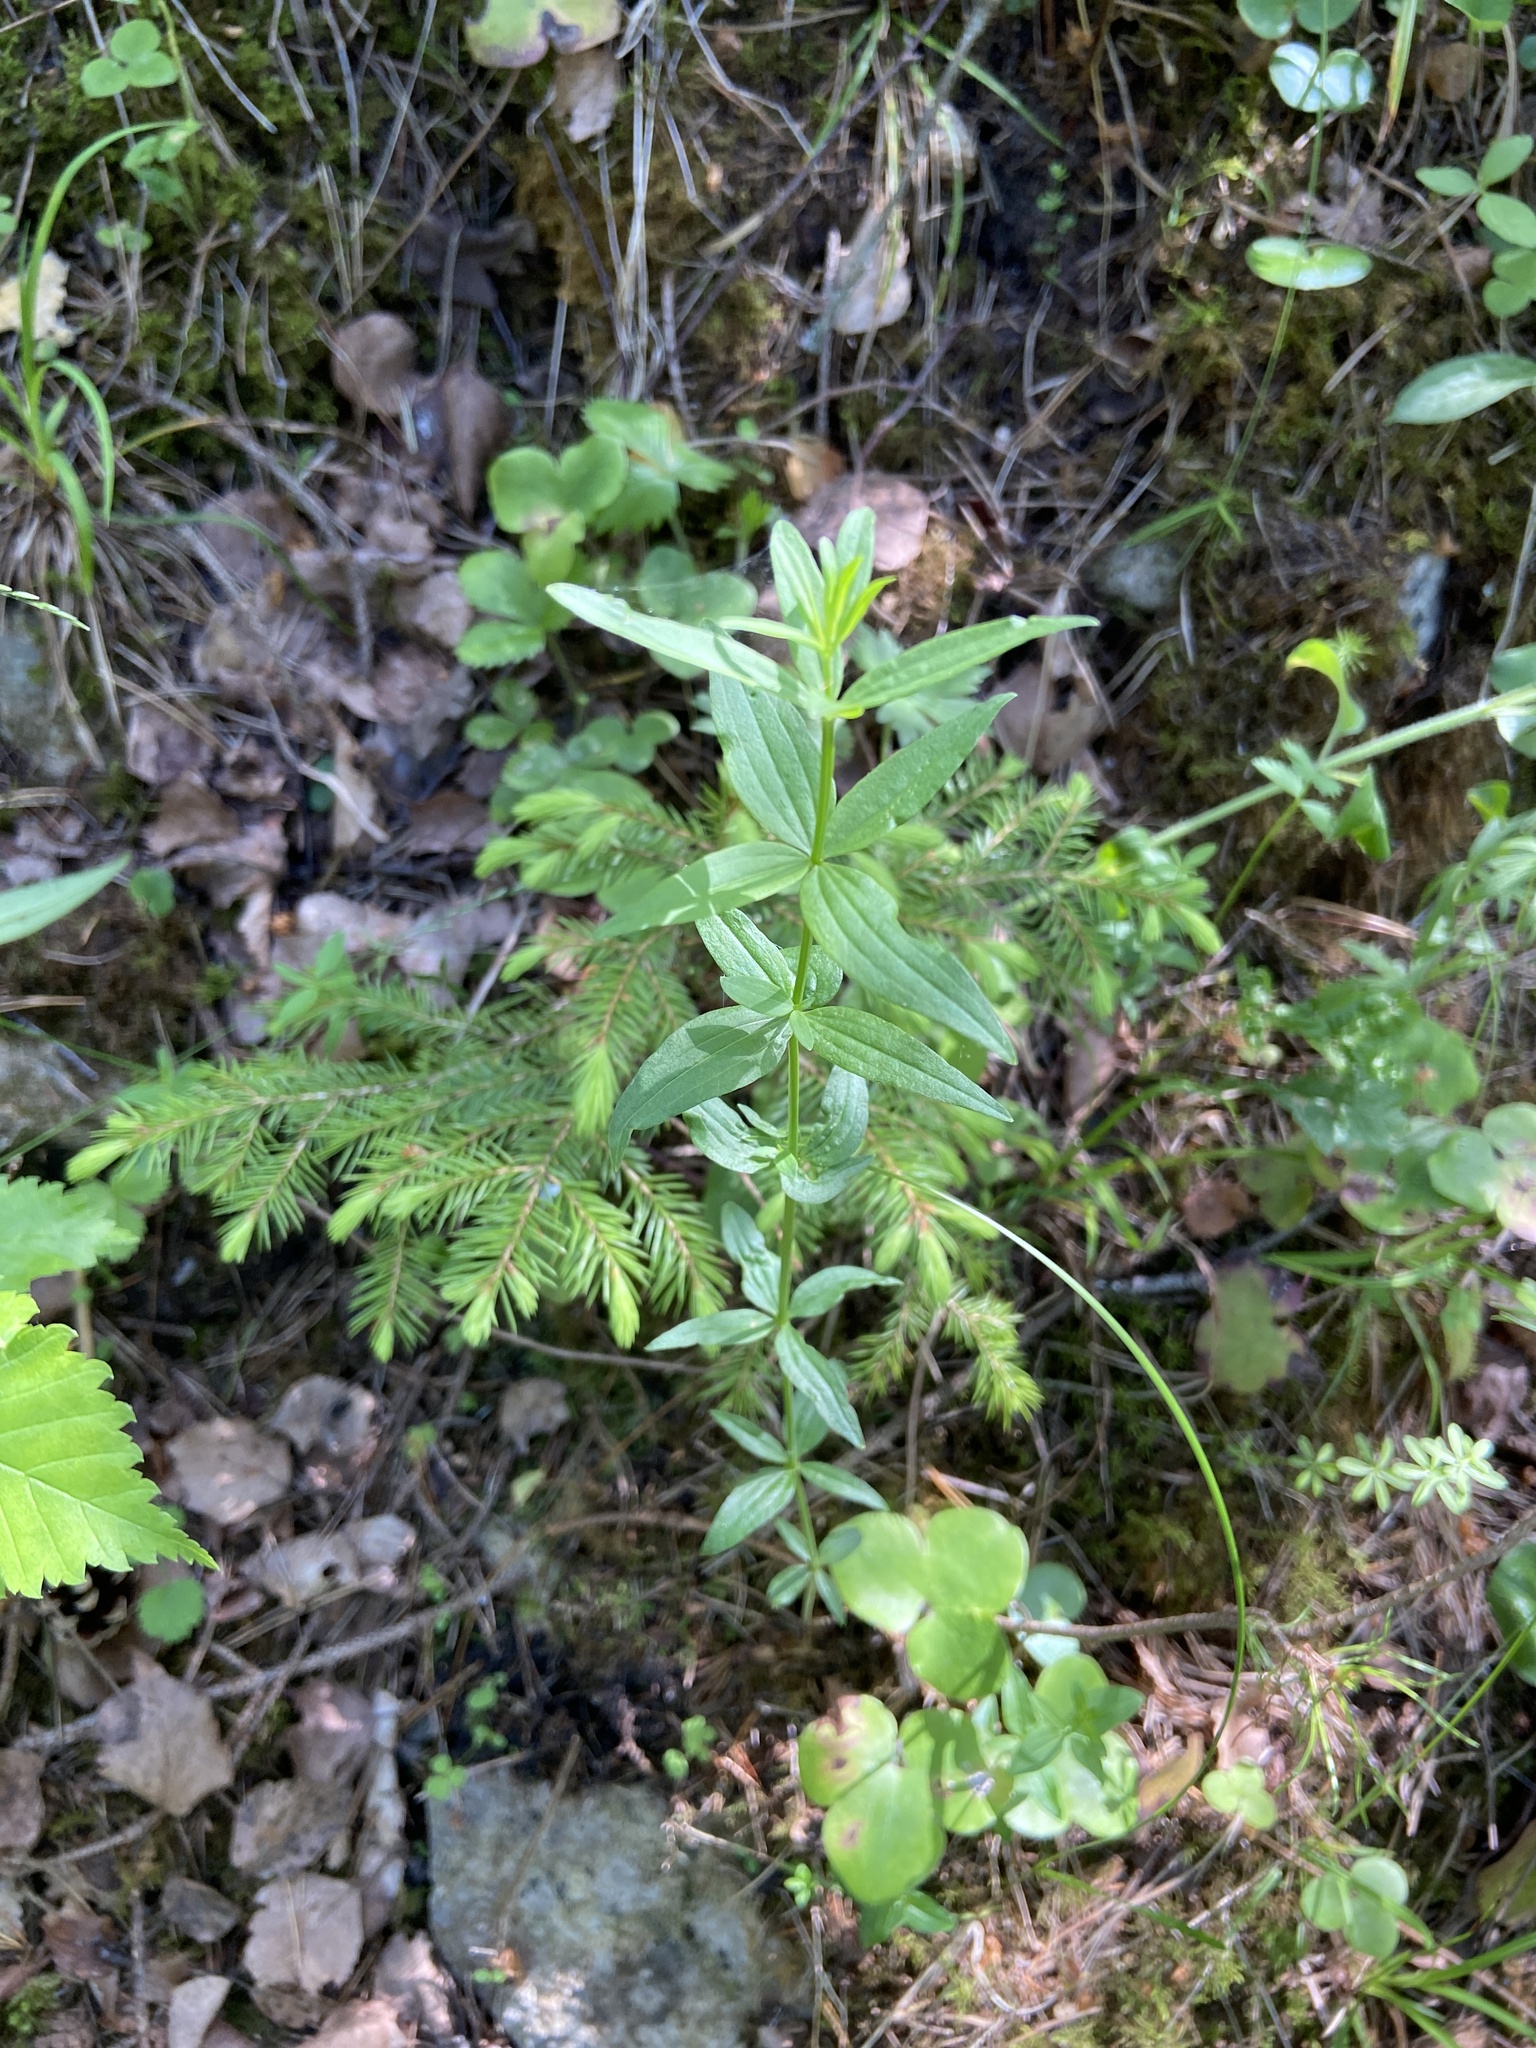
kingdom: Plantae
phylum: Tracheophyta
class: Magnoliopsida
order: Gentianales
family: Rubiaceae
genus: Galium
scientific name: Galium boreale
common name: Northern bedstraw
